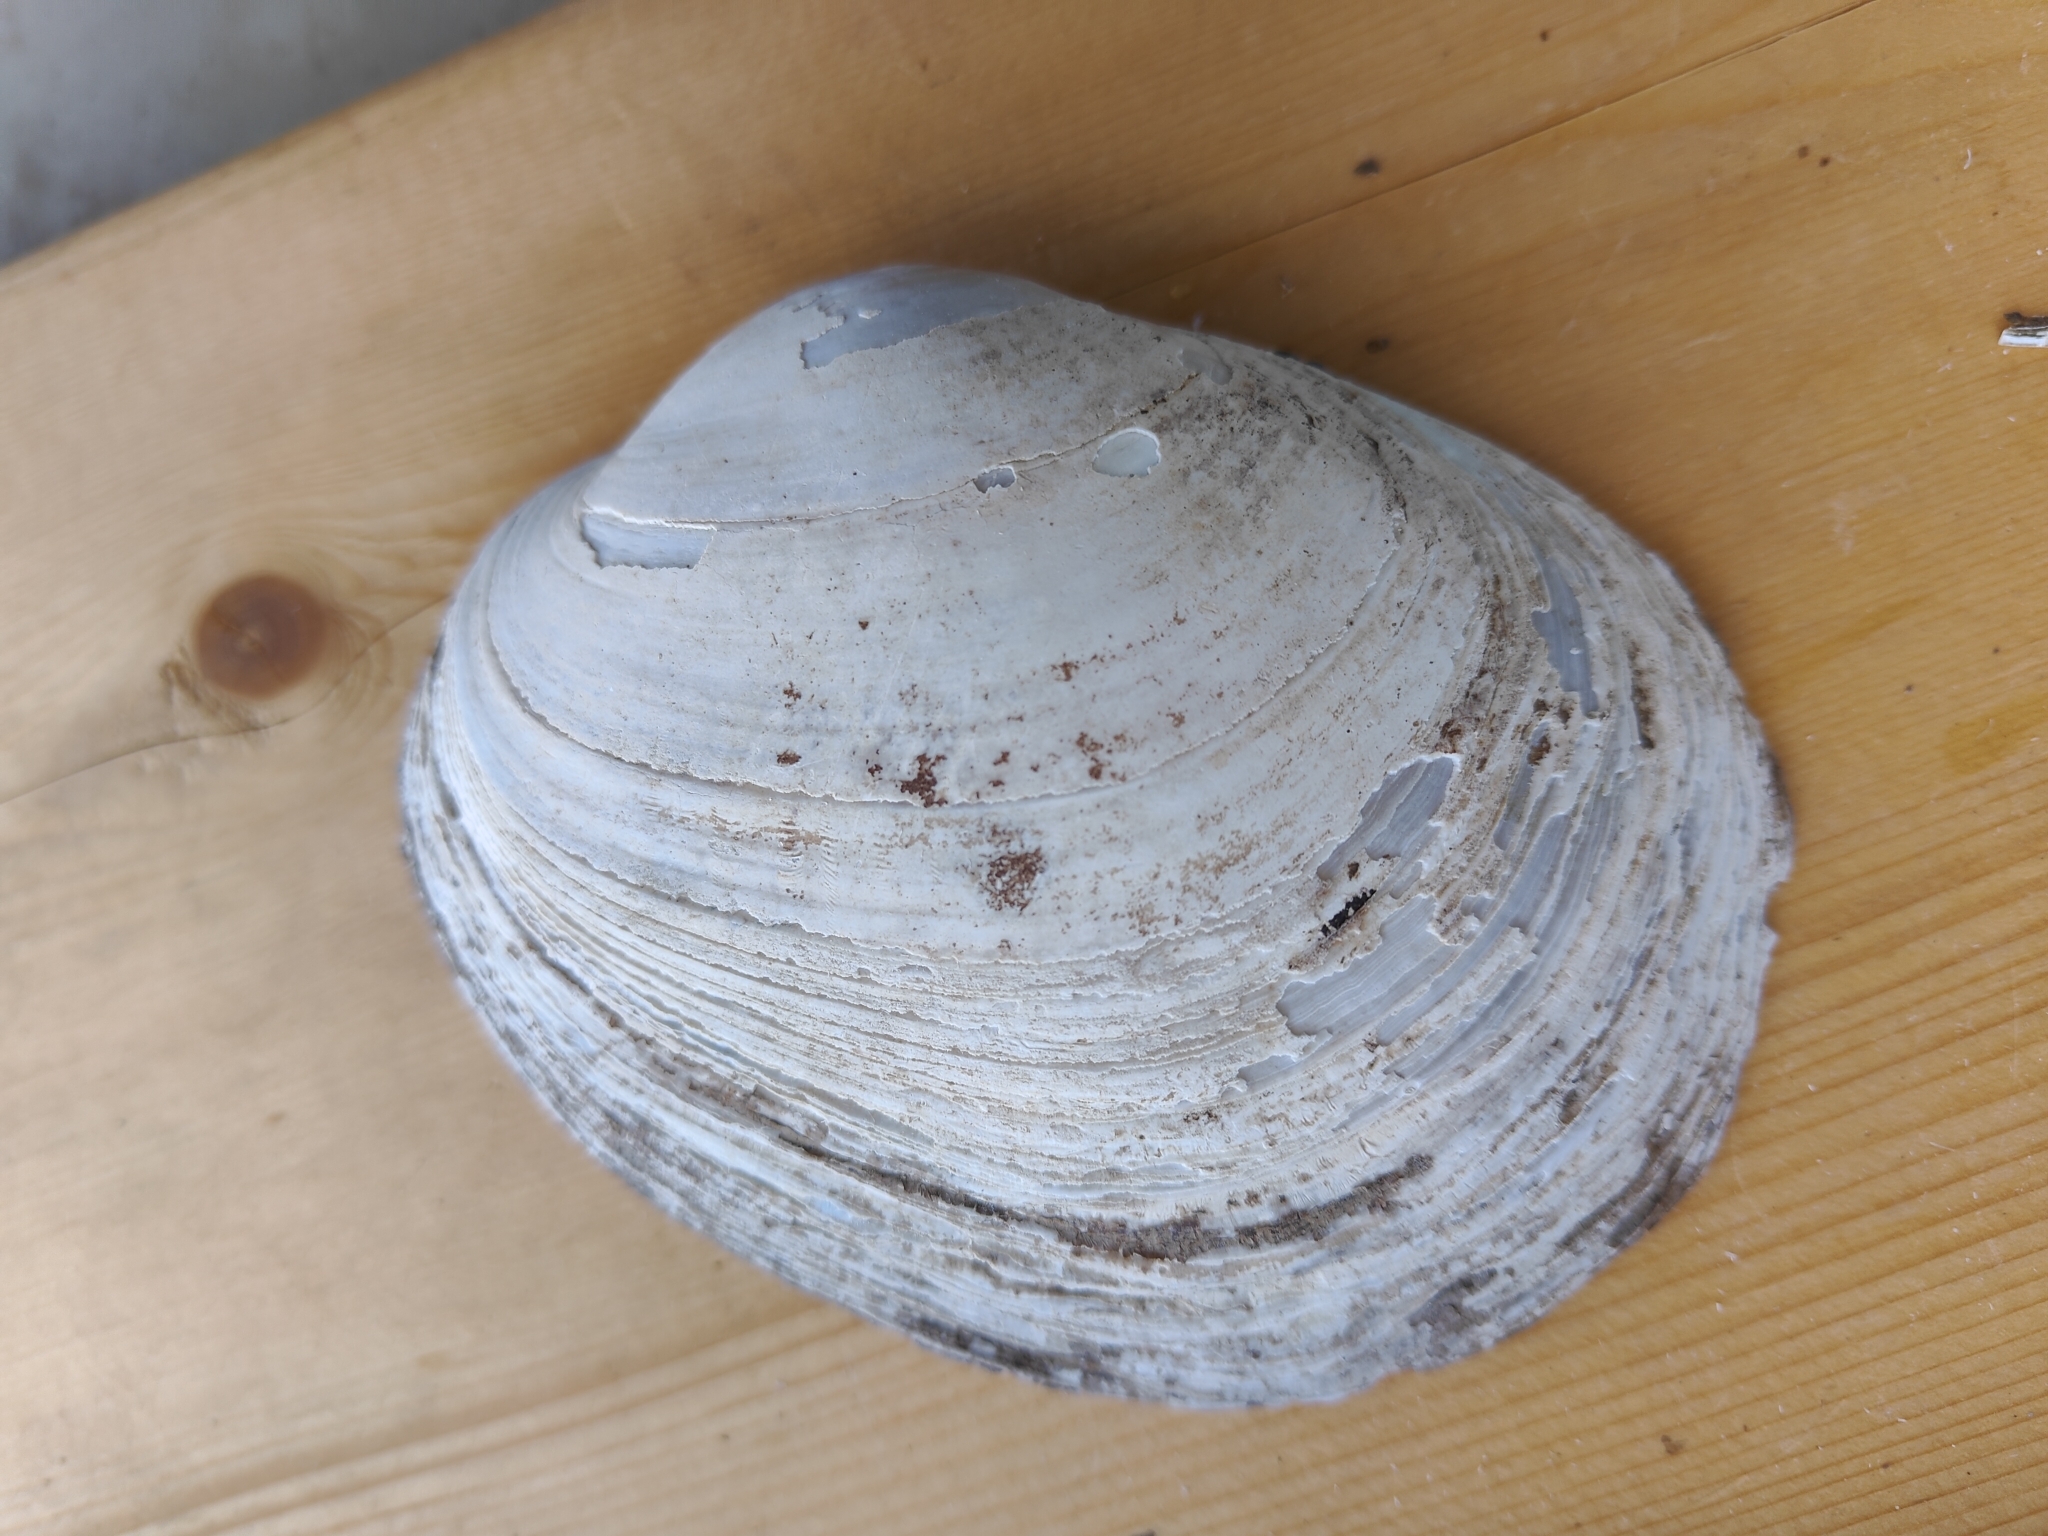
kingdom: Animalia
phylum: Mollusca
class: Bivalvia
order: Unionida
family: Unionidae
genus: Lampsilis
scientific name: Lampsilis cardium
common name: Plain pocketbook
